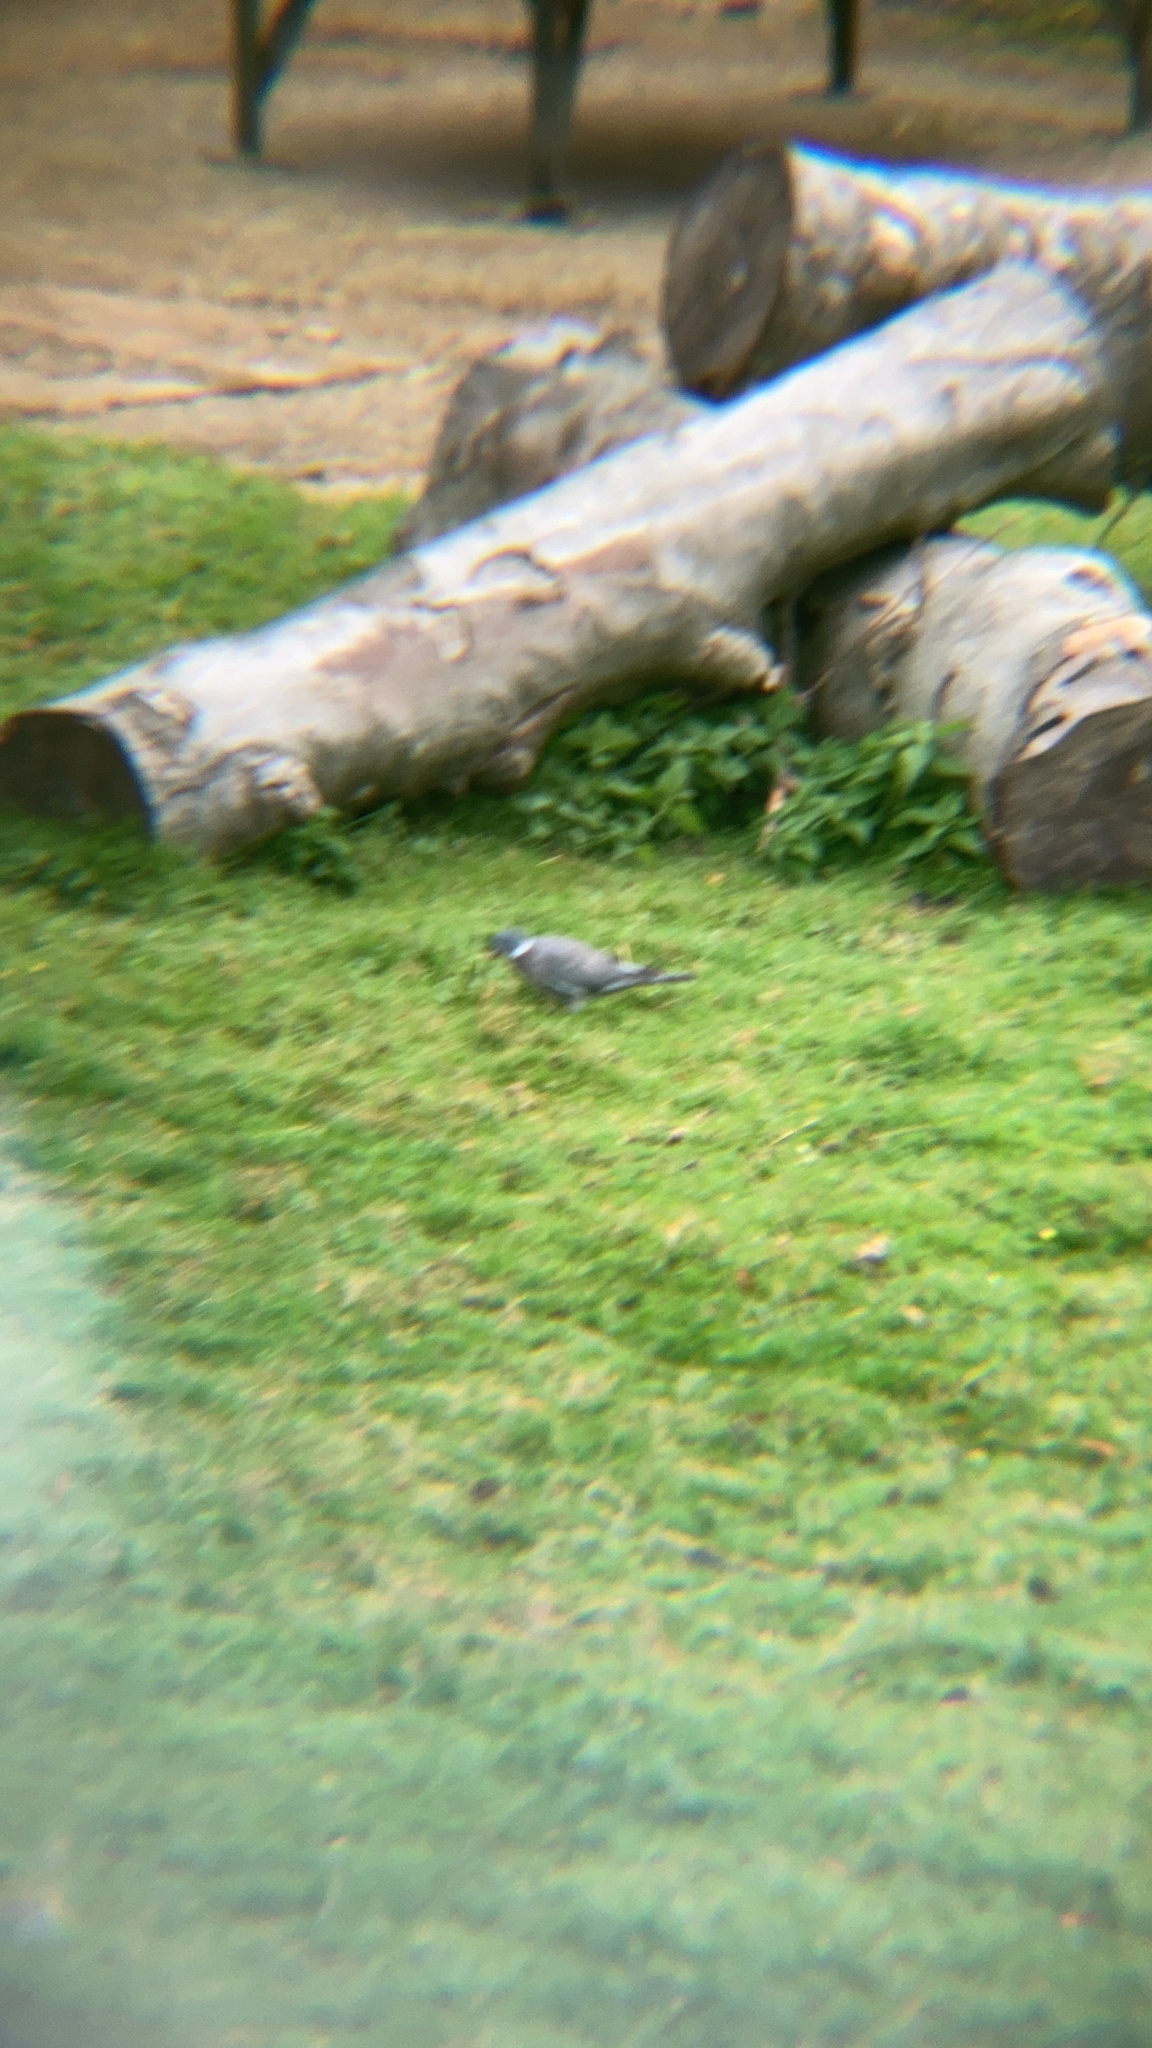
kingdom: Animalia
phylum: Chordata
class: Aves
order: Columbiformes
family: Columbidae
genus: Columba
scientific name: Columba palumbus
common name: Common wood pigeon
